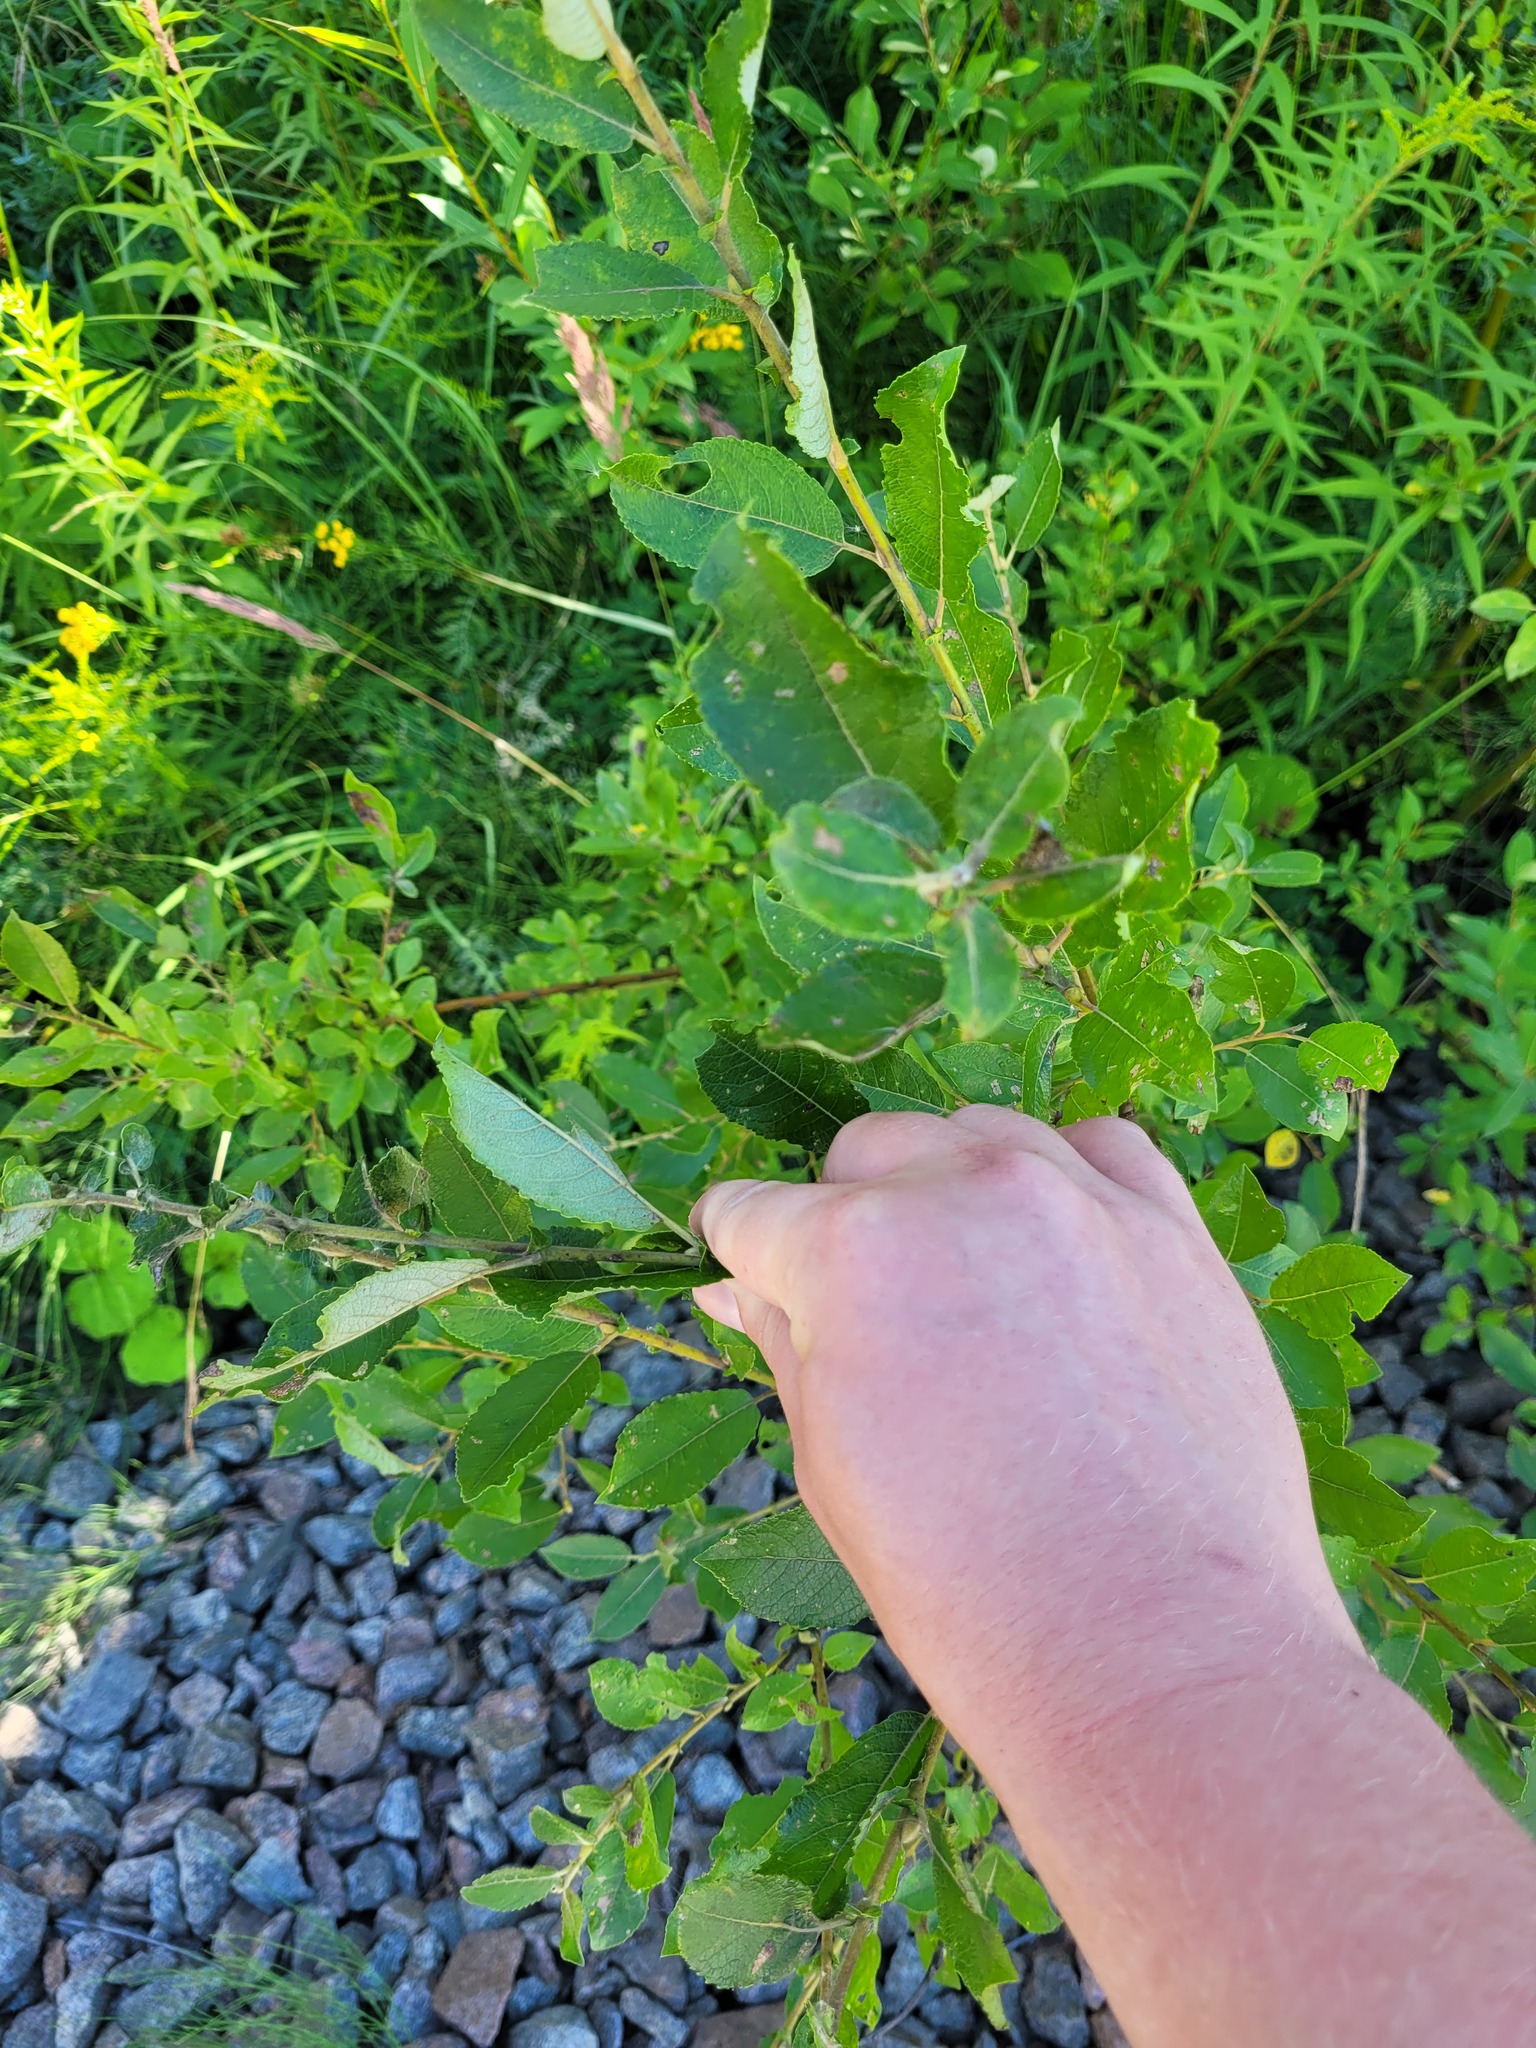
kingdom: Plantae
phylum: Tracheophyta
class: Magnoliopsida
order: Malpighiales
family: Salicaceae
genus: Salix
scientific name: Salix myrsinifolia
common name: Dark-leaved willow
